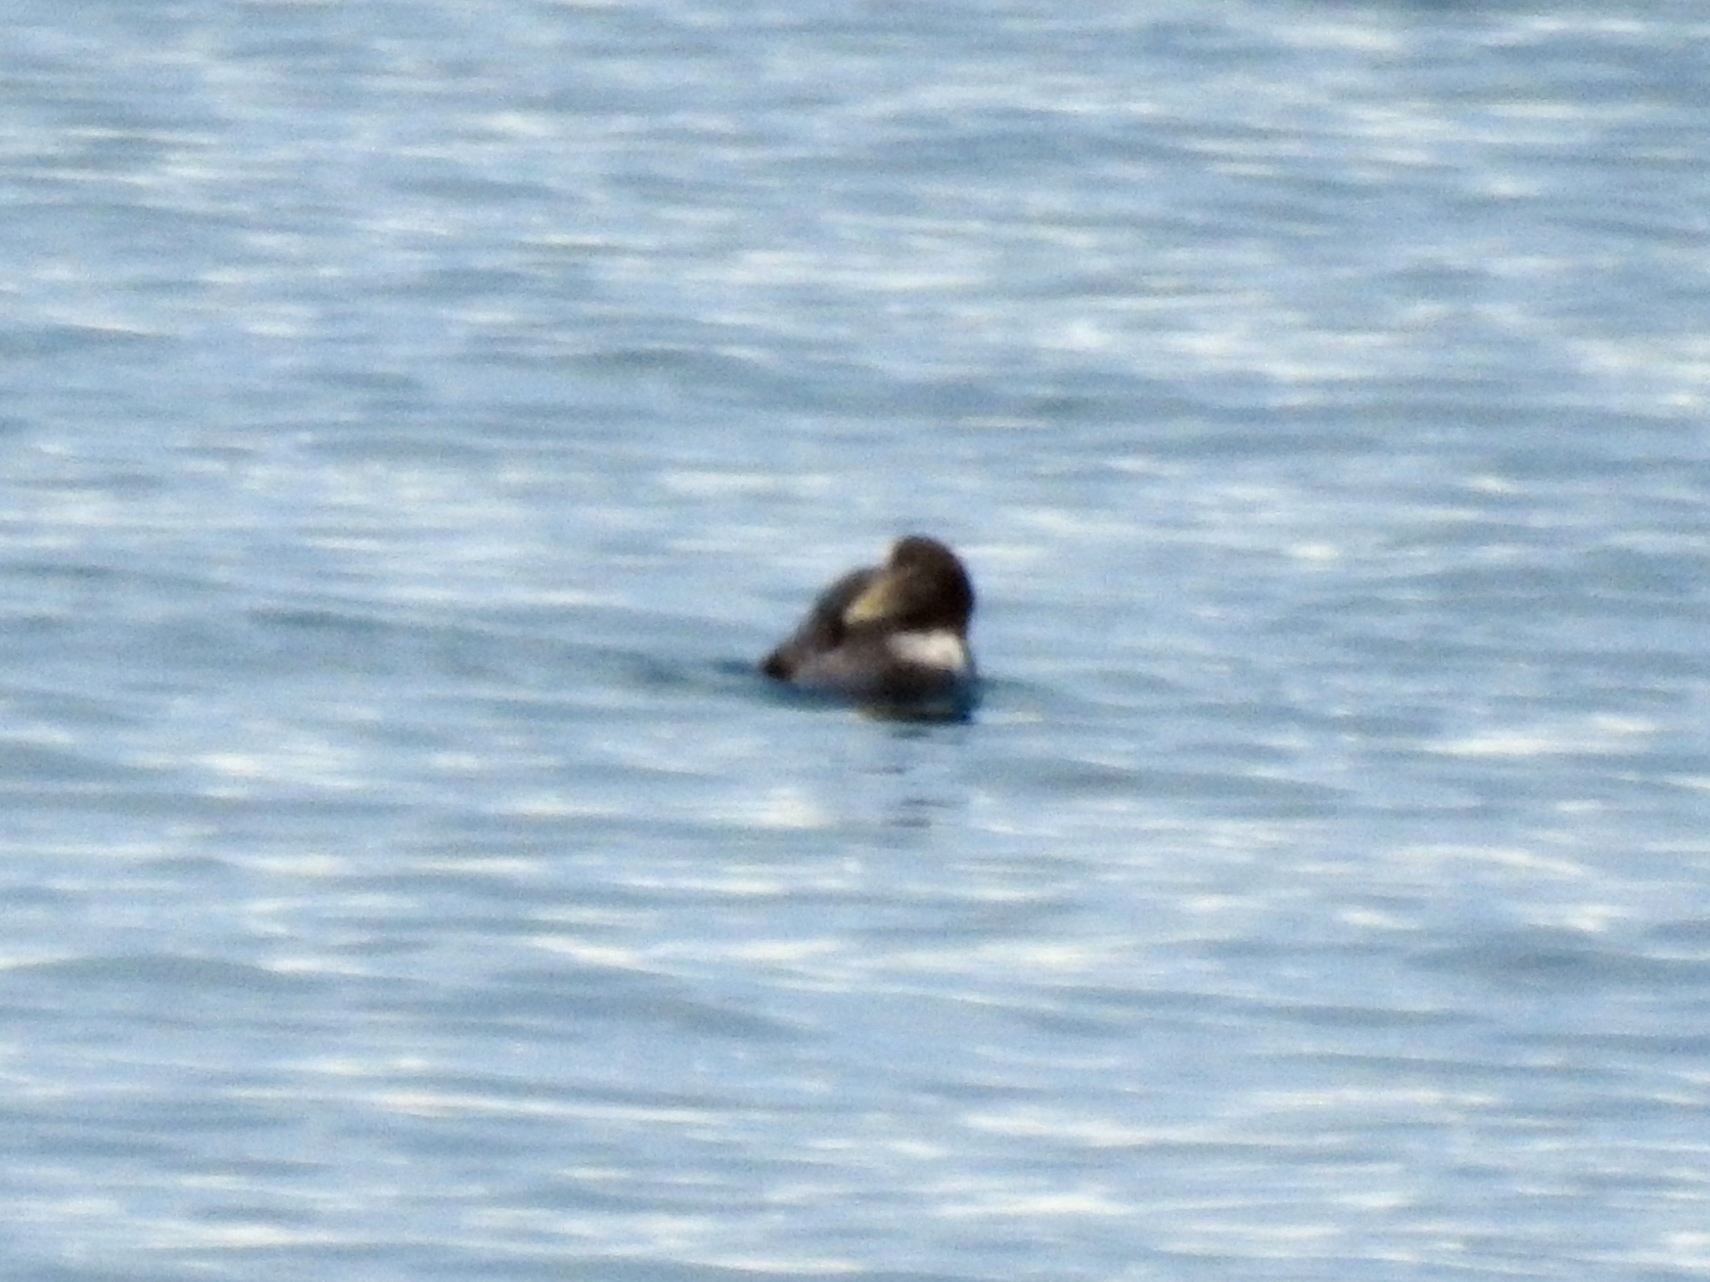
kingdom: Animalia
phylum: Chordata
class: Aves
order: Anseriformes
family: Anatidae
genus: Somateria
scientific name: Somateria mollissima
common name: Common eider
